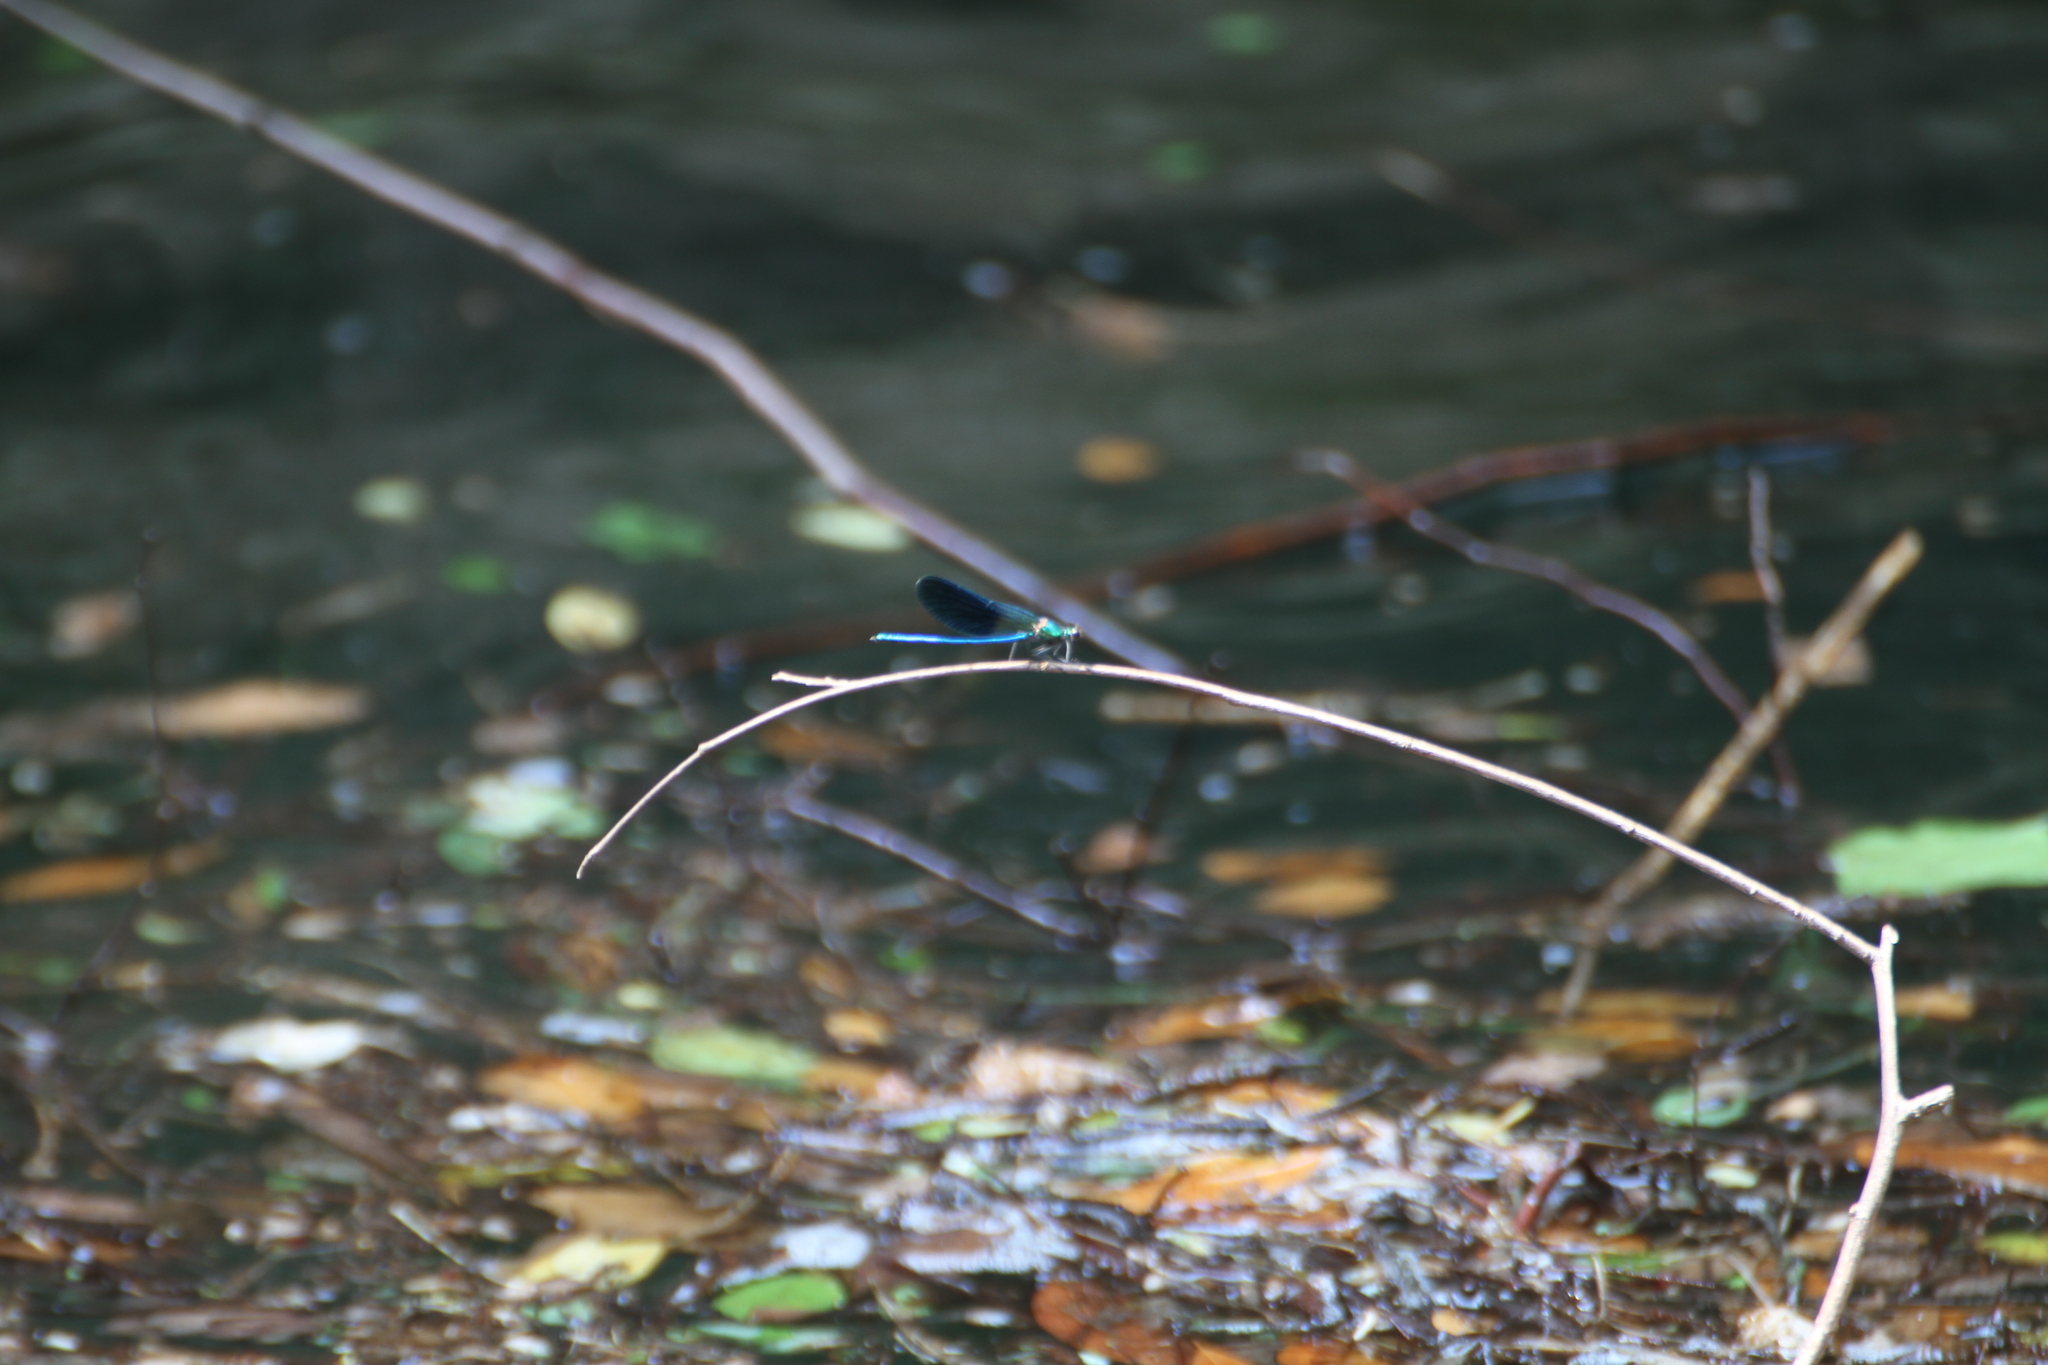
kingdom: Animalia
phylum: Arthropoda
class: Insecta
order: Odonata
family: Calopterygidae
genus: Calopteryx
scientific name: Calopteryx xanthostoma
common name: Western demoiselle
